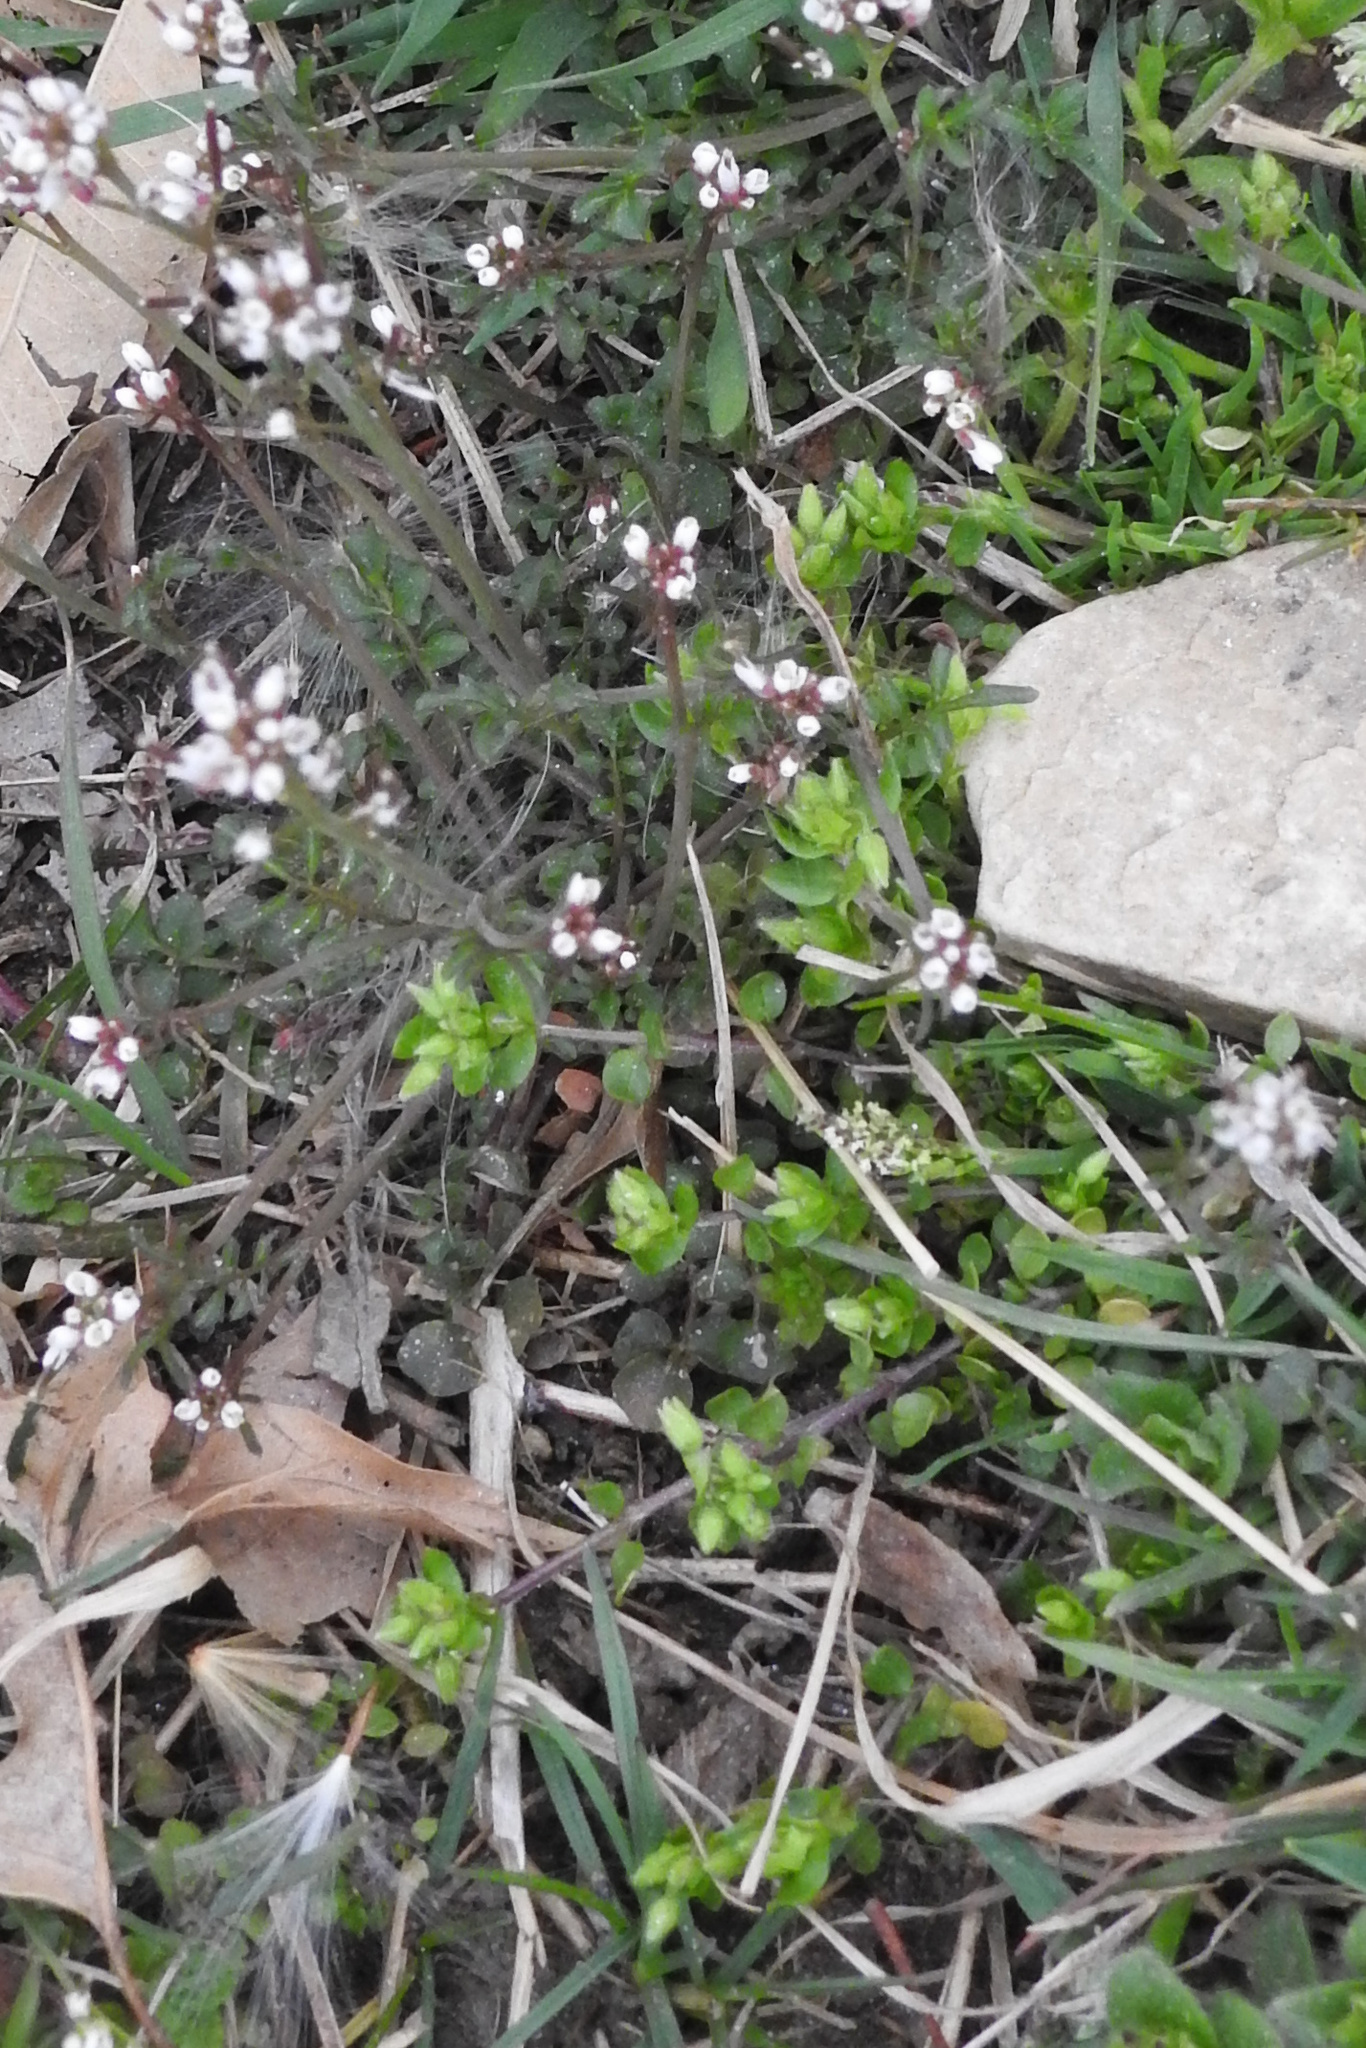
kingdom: Plantae
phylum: Tracheophyta
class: Magnoliopsida
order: Brassicales
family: Brassicaceae
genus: Cardamine
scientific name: Cardamine hirsuta
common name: Hairy bittercress
